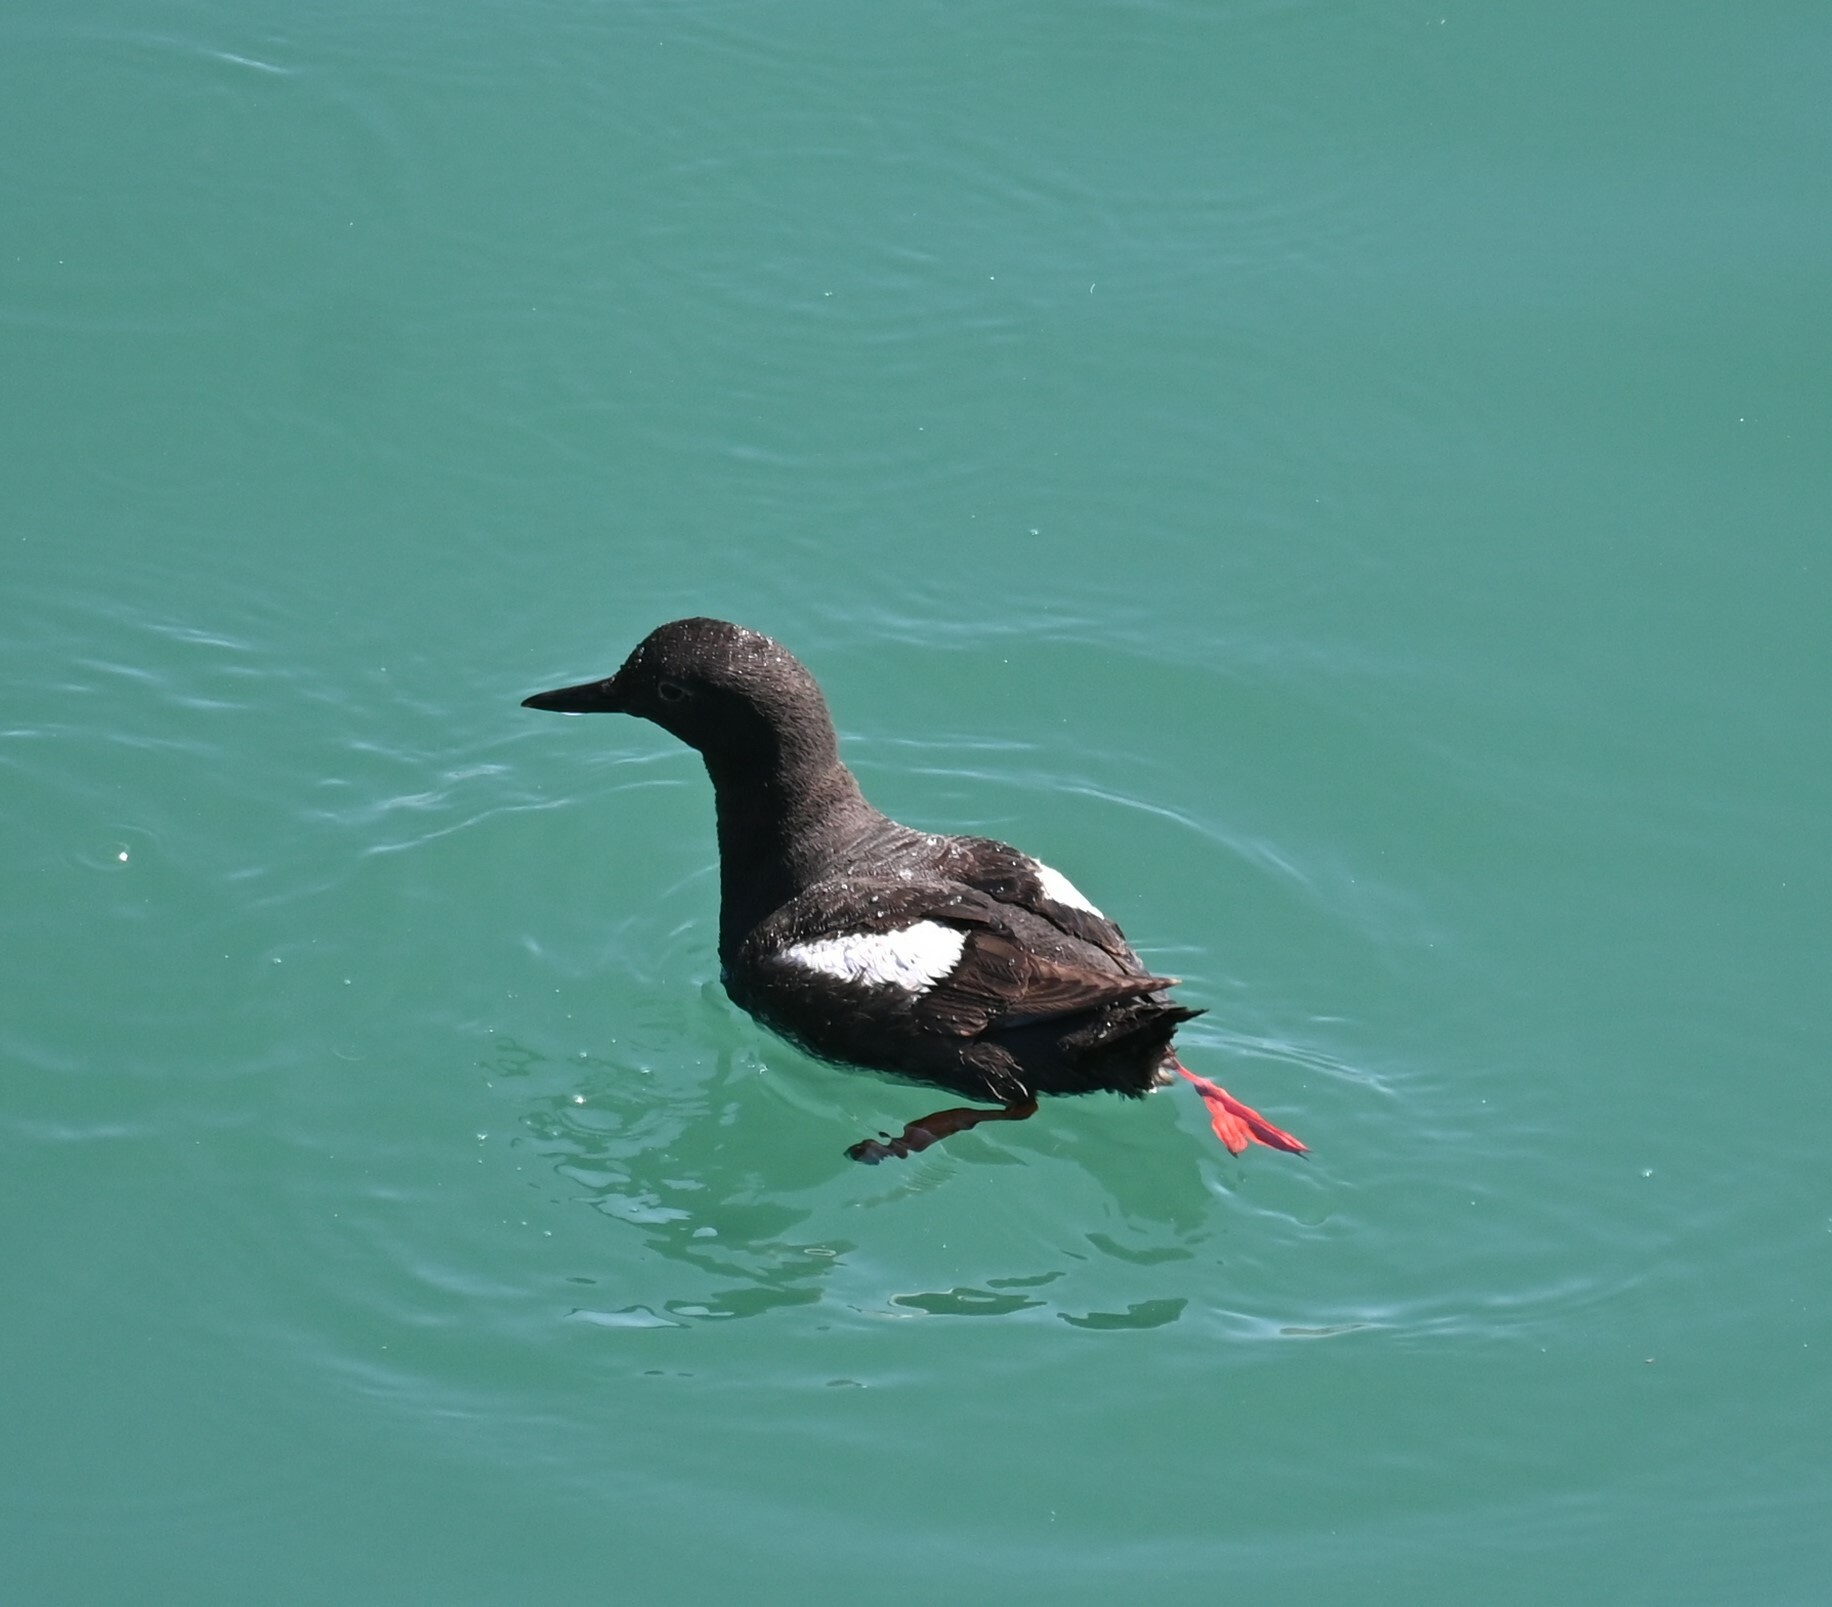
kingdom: Animalia
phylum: Chordata
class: Aves
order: Charadriiformes
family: Alcidae
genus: Cepphus
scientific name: Cepphus columba
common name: Pigeon guillemot
